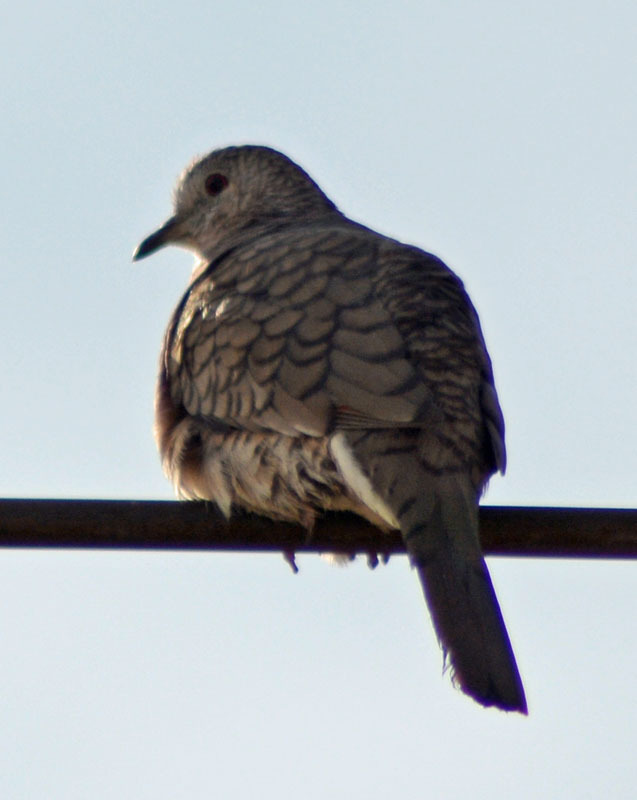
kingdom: Animalia
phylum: Chordata
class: Aves
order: Columbiformes
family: Columbidae
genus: Columbina
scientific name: Columbina inca
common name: Inca dove
